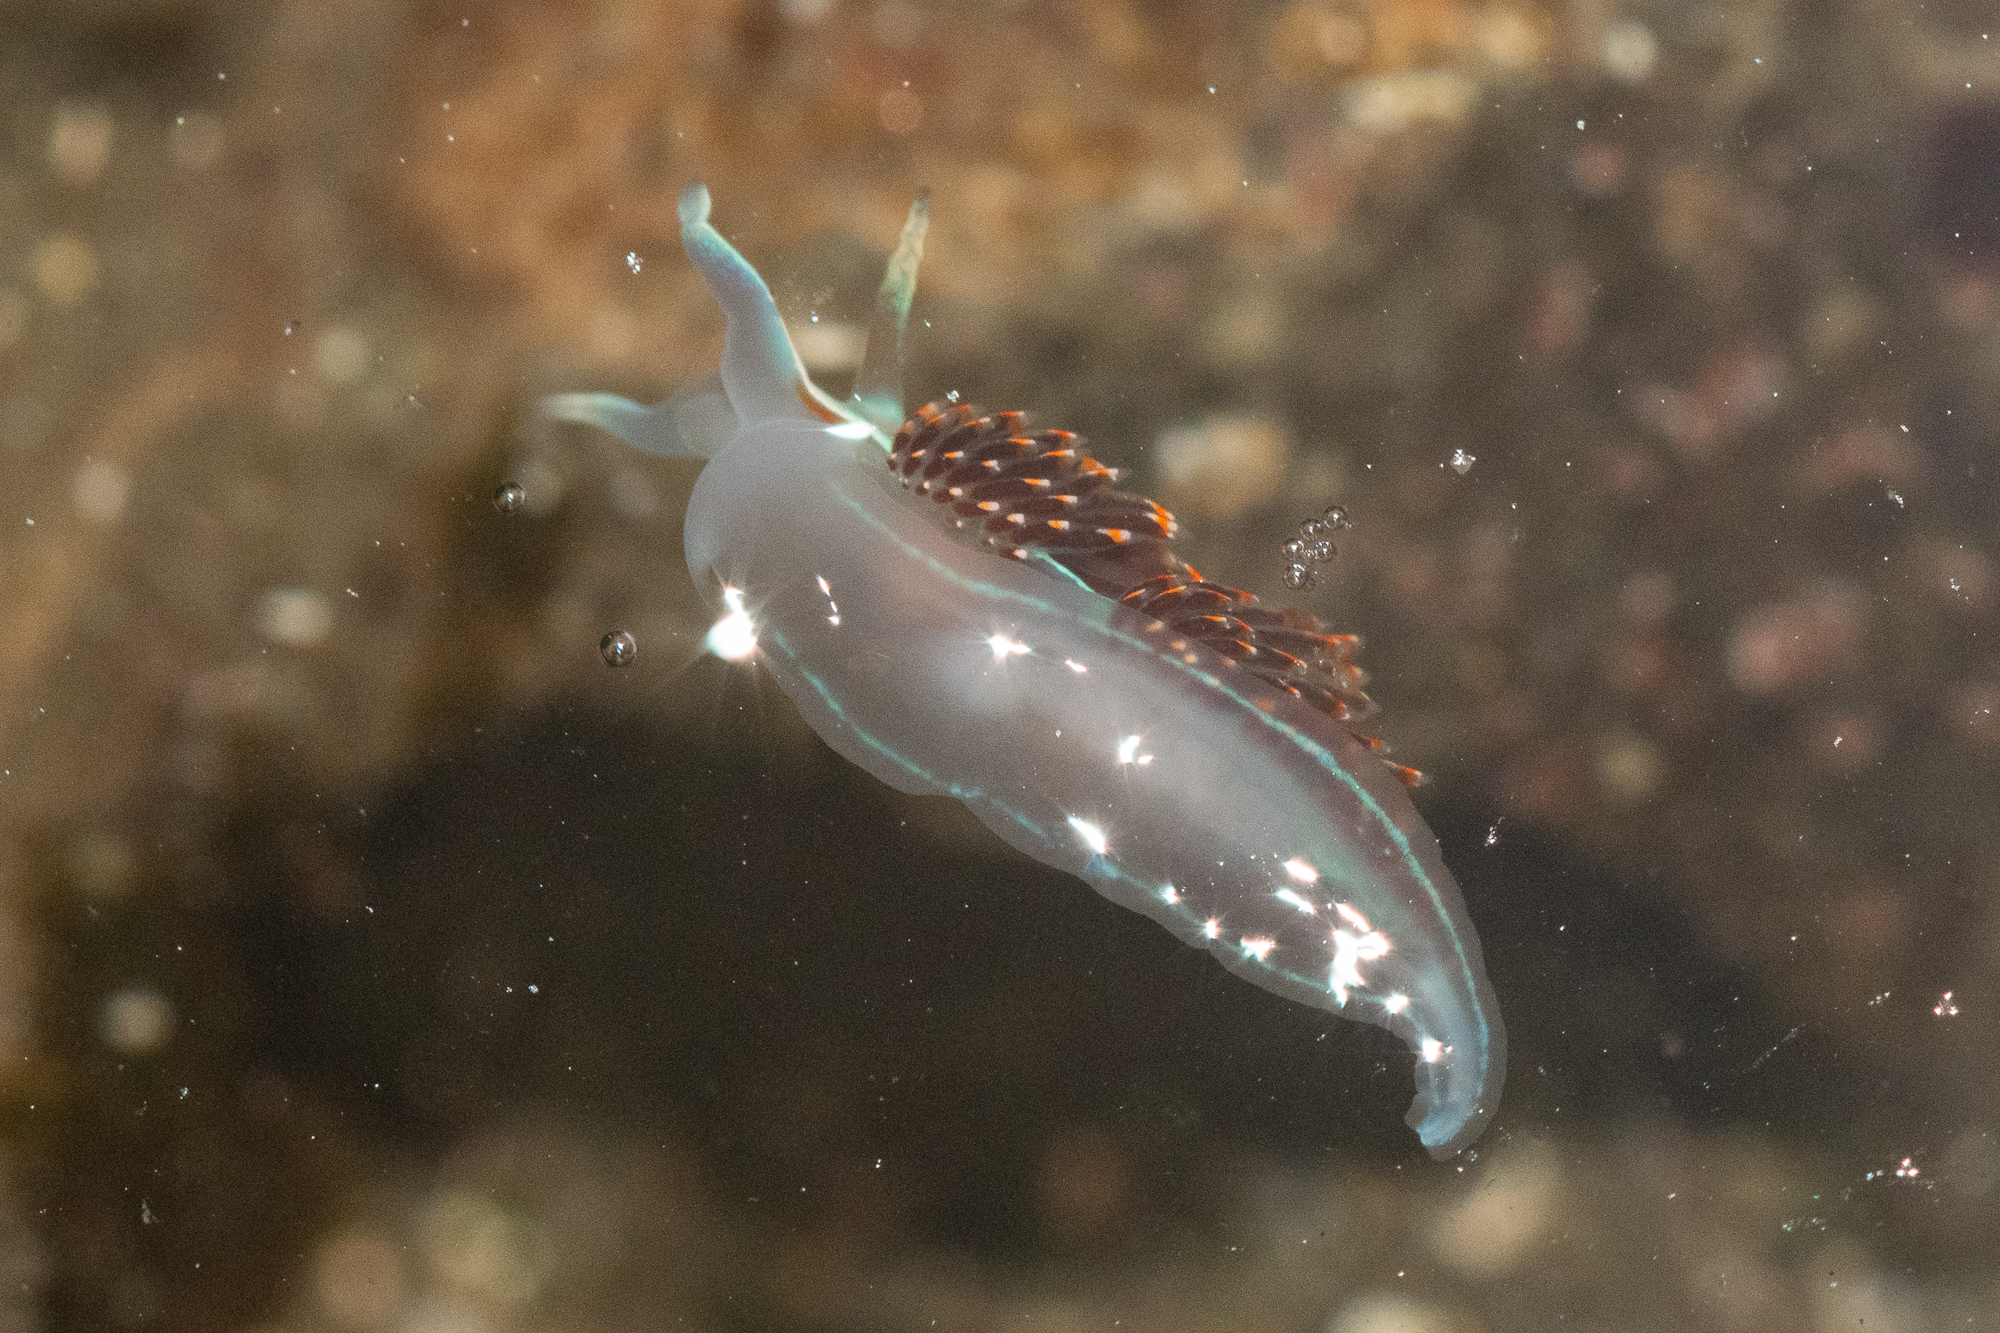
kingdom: Animalia
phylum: Mollusca
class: Gastropoda
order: Nudibranchia
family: Myrrhinidae
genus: Hermissenda
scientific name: Hermissenda opalescens
